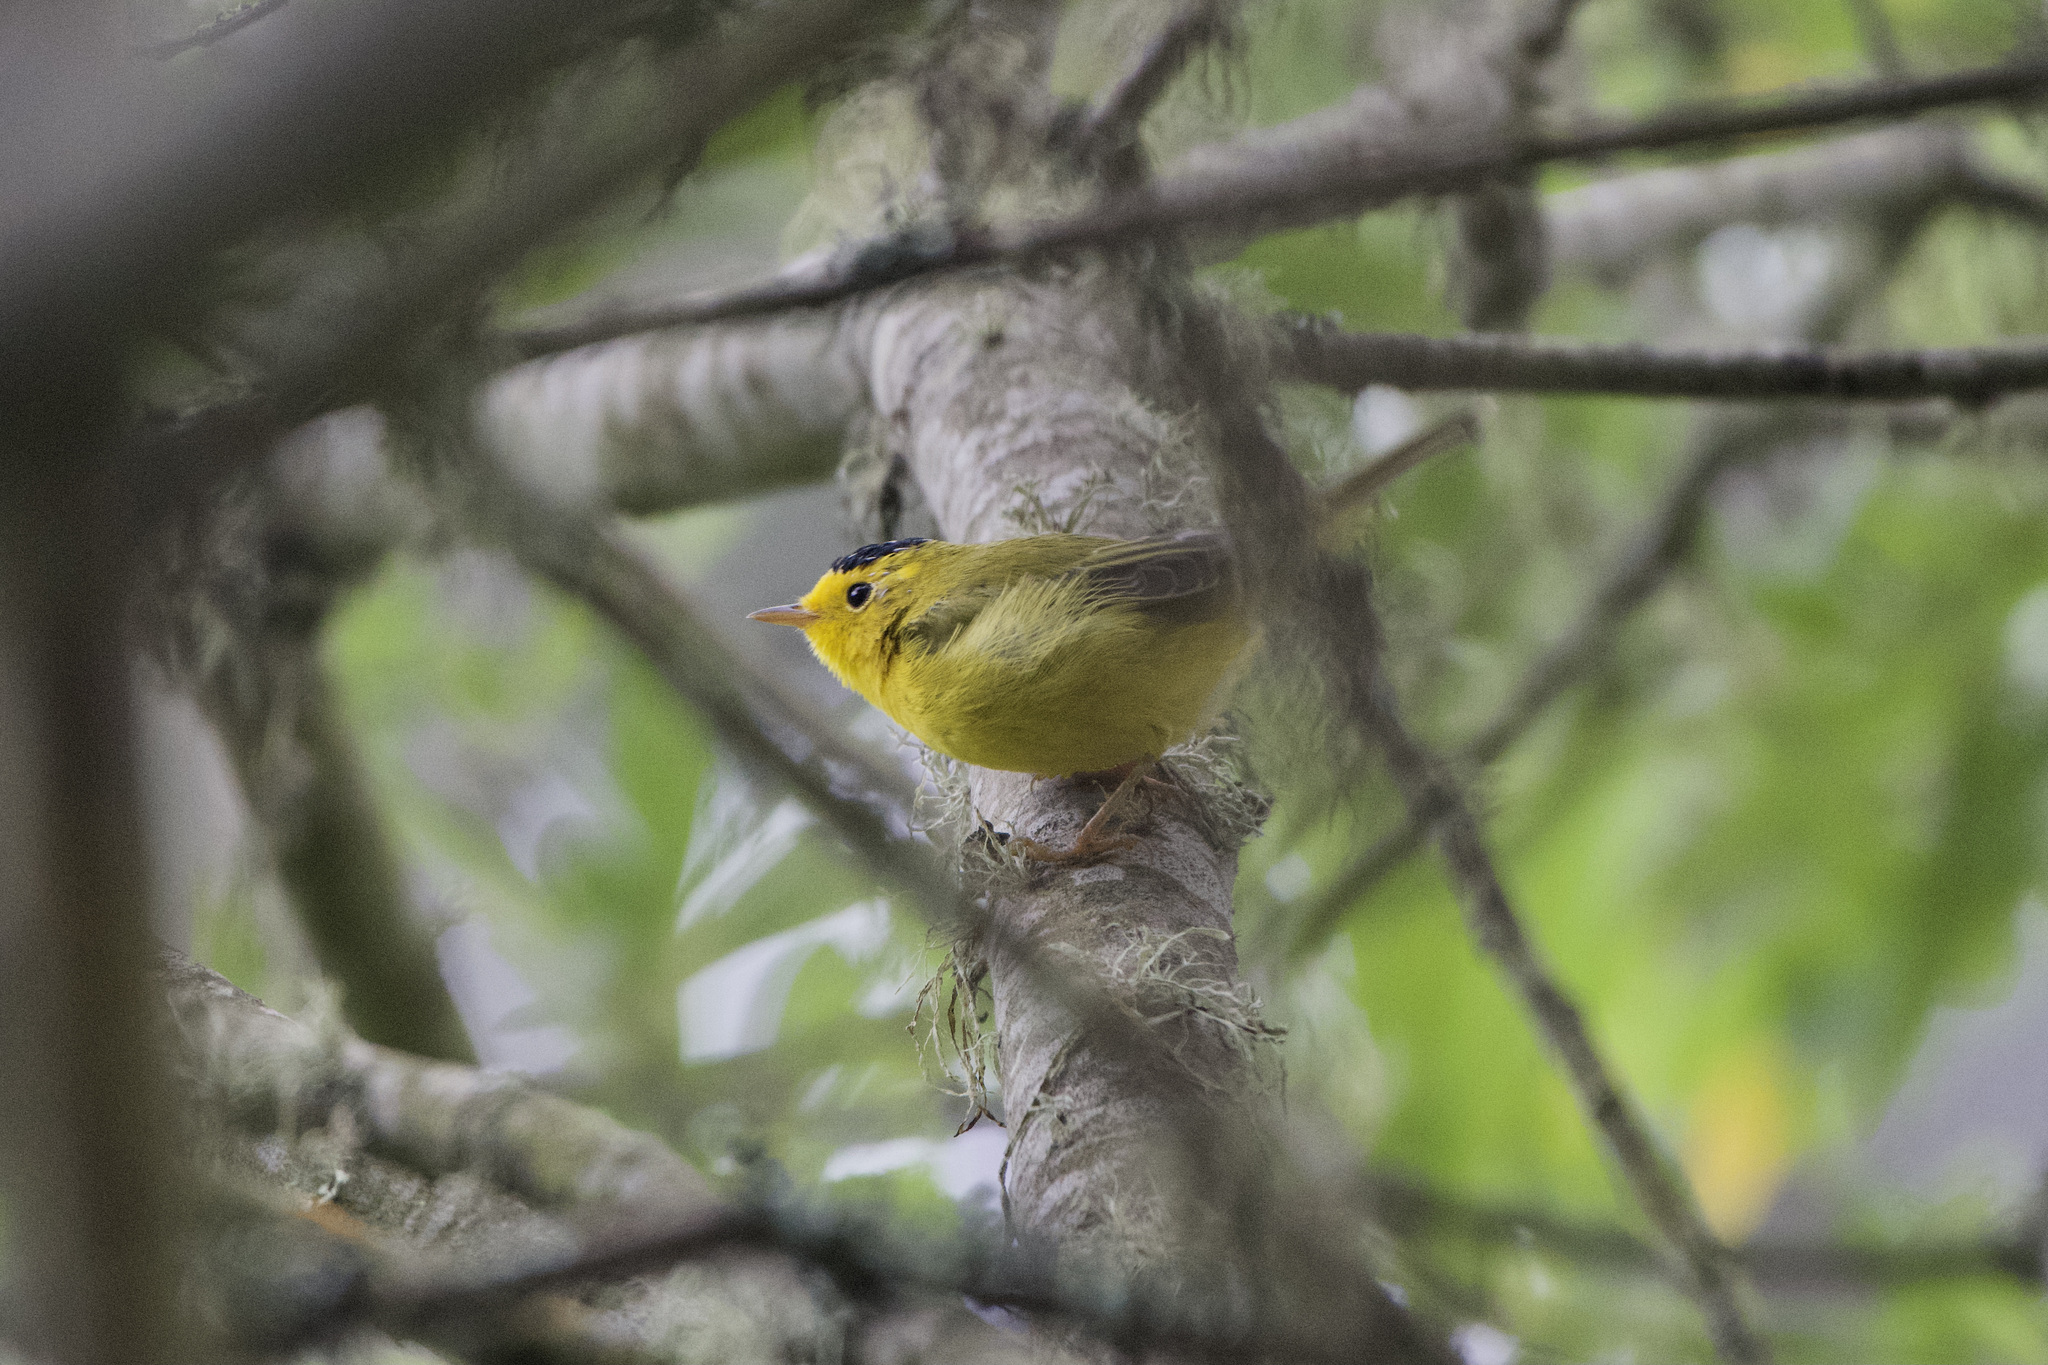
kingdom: Animalia
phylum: Chordata
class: Aves
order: Passeriformes
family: Parulidae
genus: Cardellina
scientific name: Cardellina pusilla
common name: Wilson's warbler
